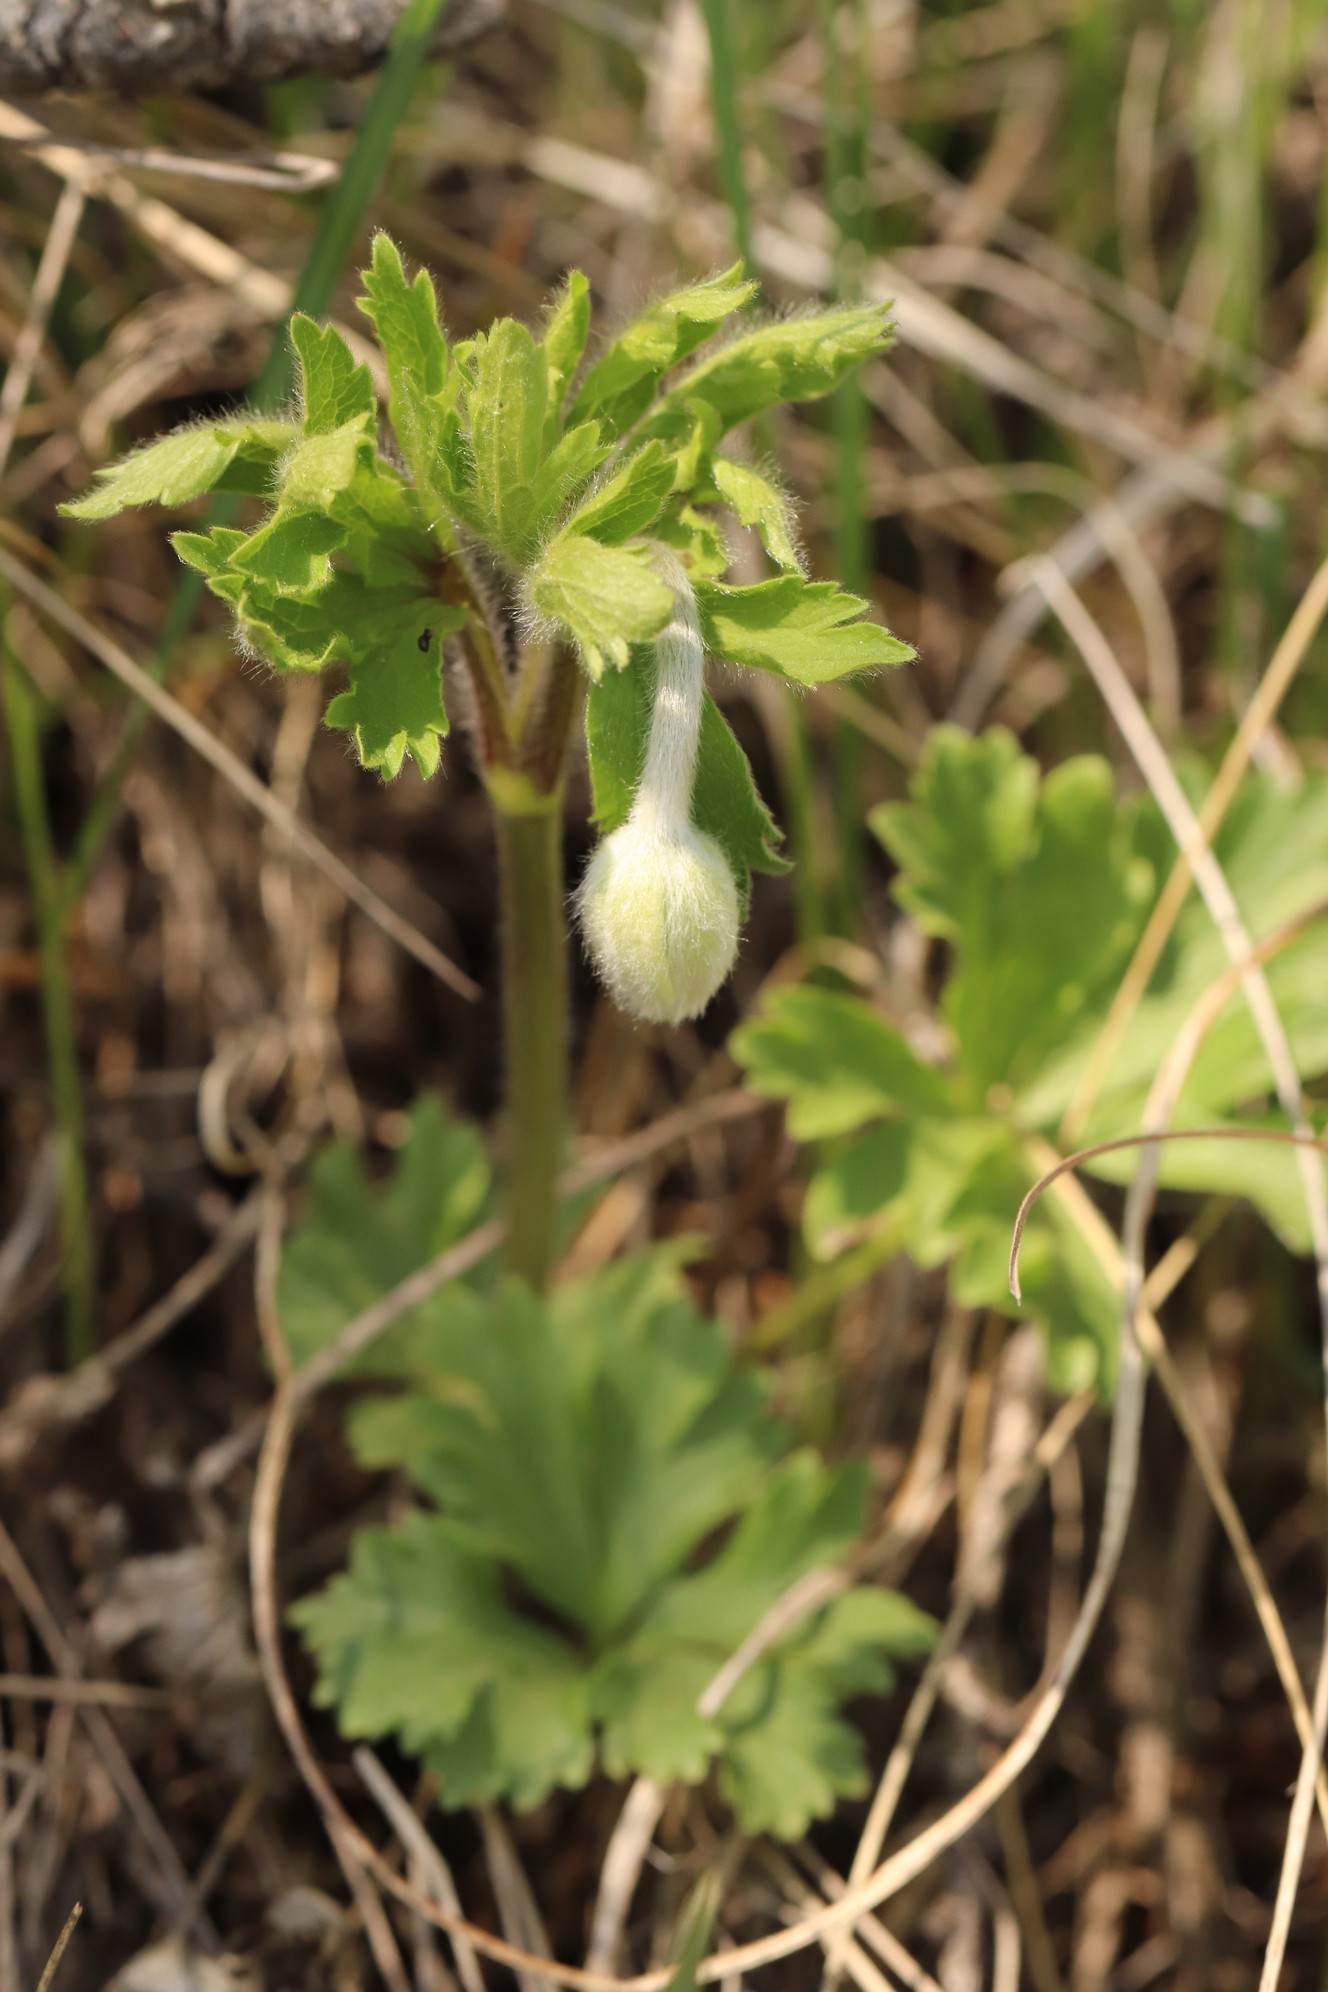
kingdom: Plantae
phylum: Tracheophyta
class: Magnoliopsida
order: Ranunculales
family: Ranunculaceae
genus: Anemone
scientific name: Anemone sylvestris
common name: Snowdrop anemone
